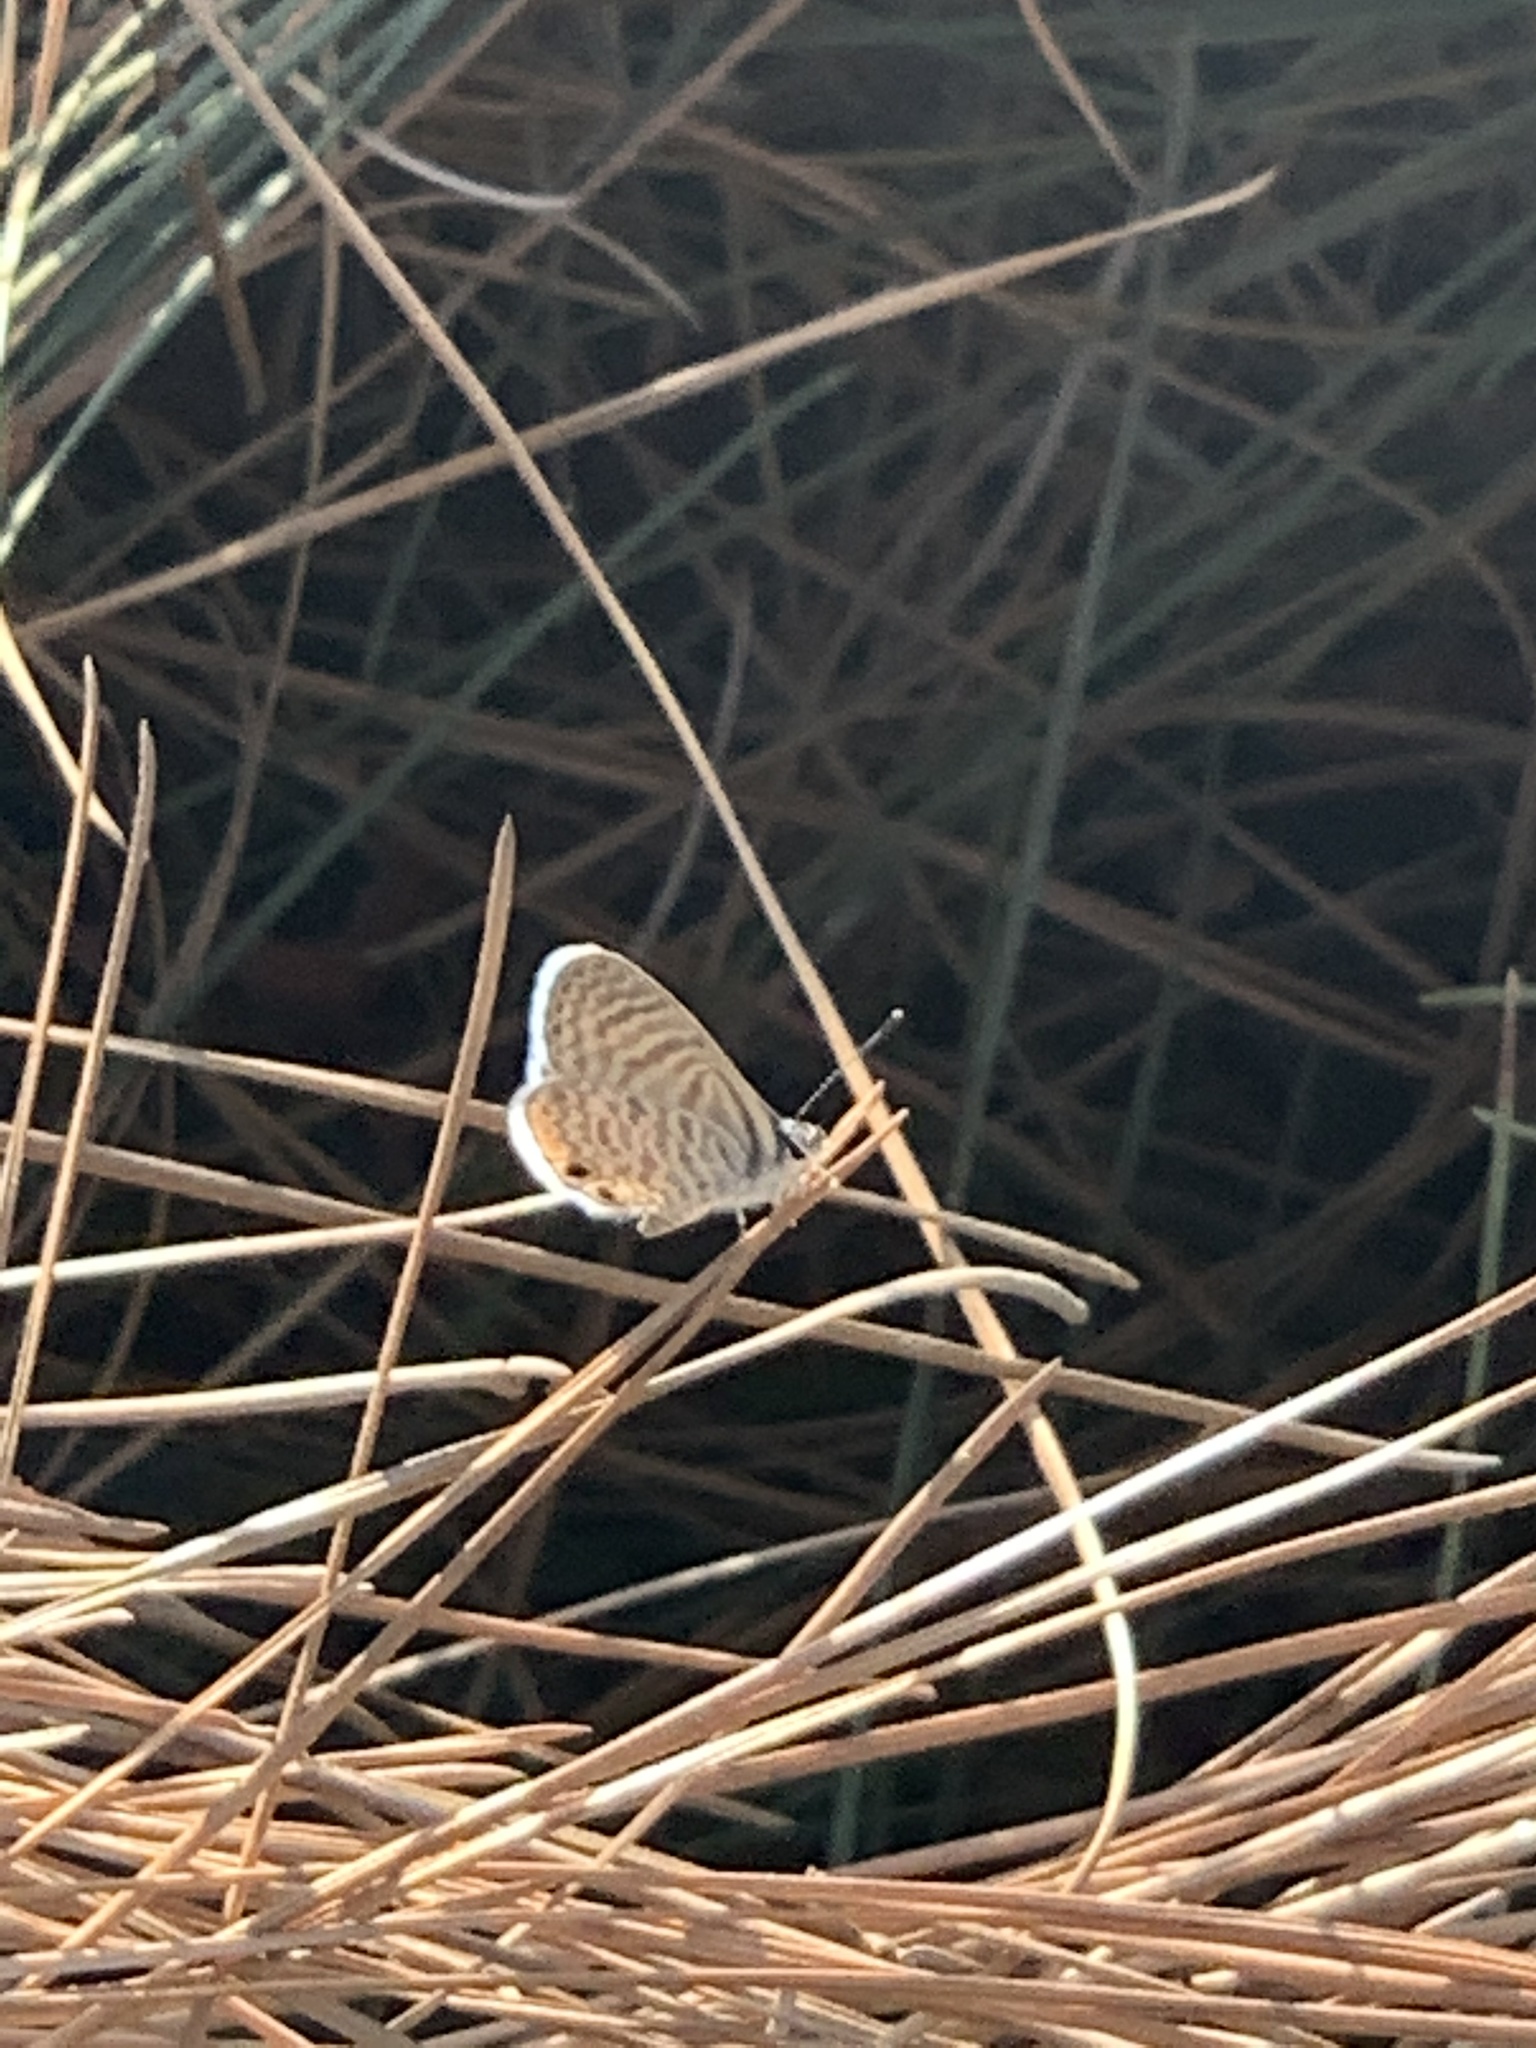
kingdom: Animalia
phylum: Arthropoda
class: Insecta
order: Lepidoptera
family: Lycaenidae
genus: Leptotes
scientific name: Leptotes marina
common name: Marine blue
